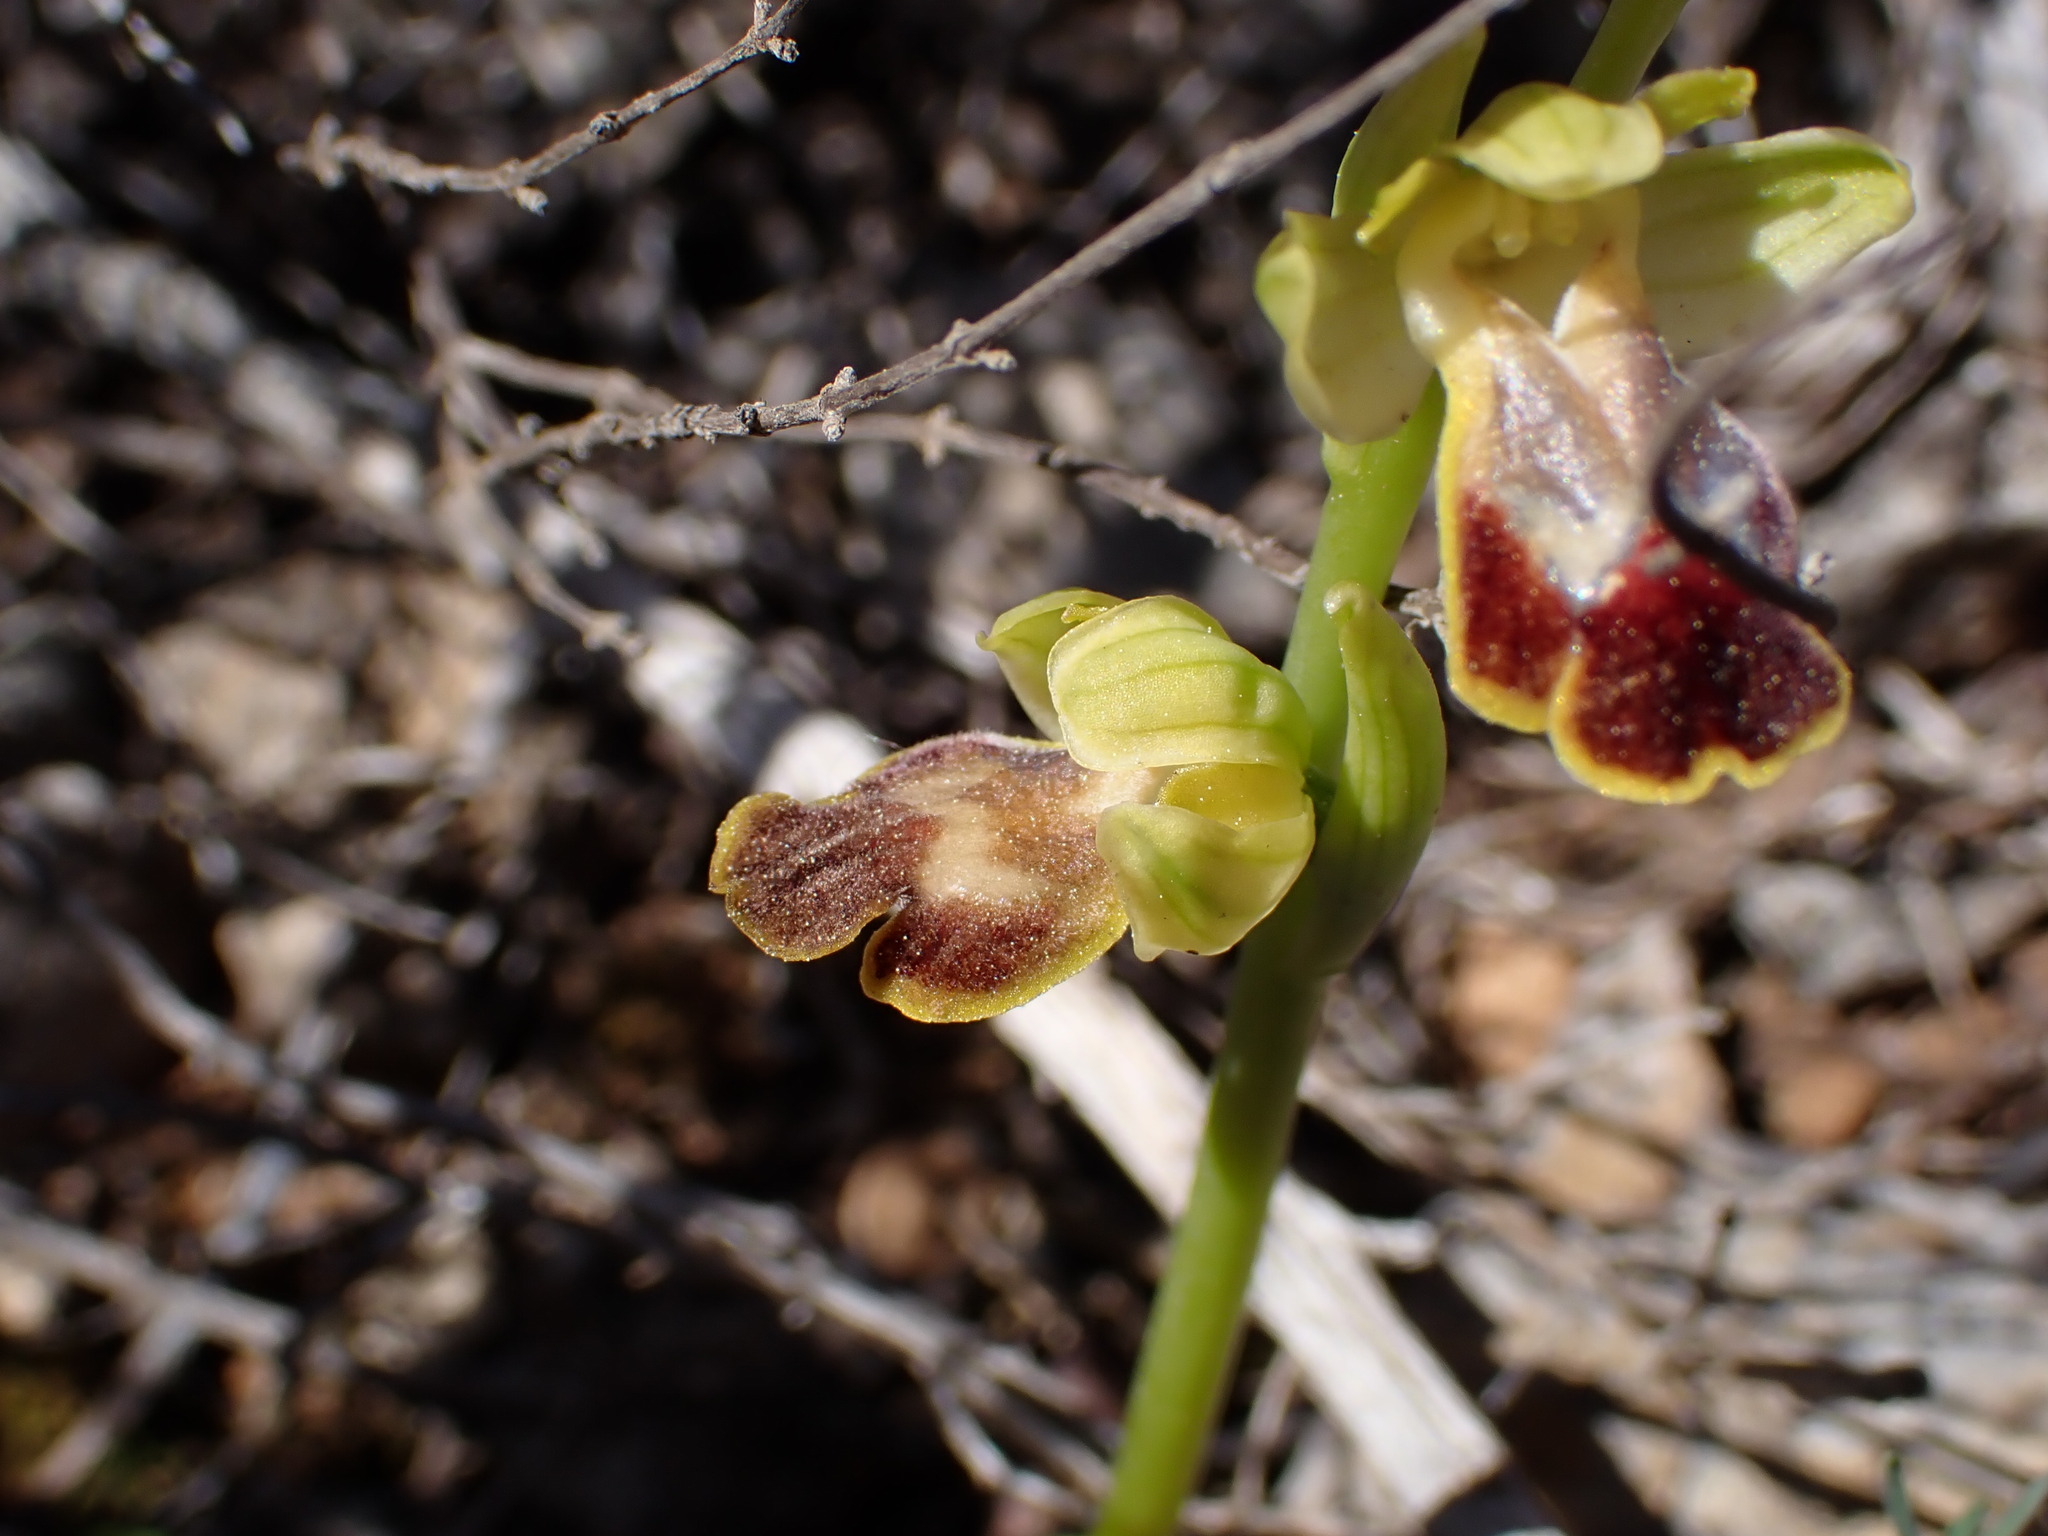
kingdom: Plantae
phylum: Tracheophyta
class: Liliopsida
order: Asparagales
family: Orchidaceae
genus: Ophrys
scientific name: Ophrys fusca
